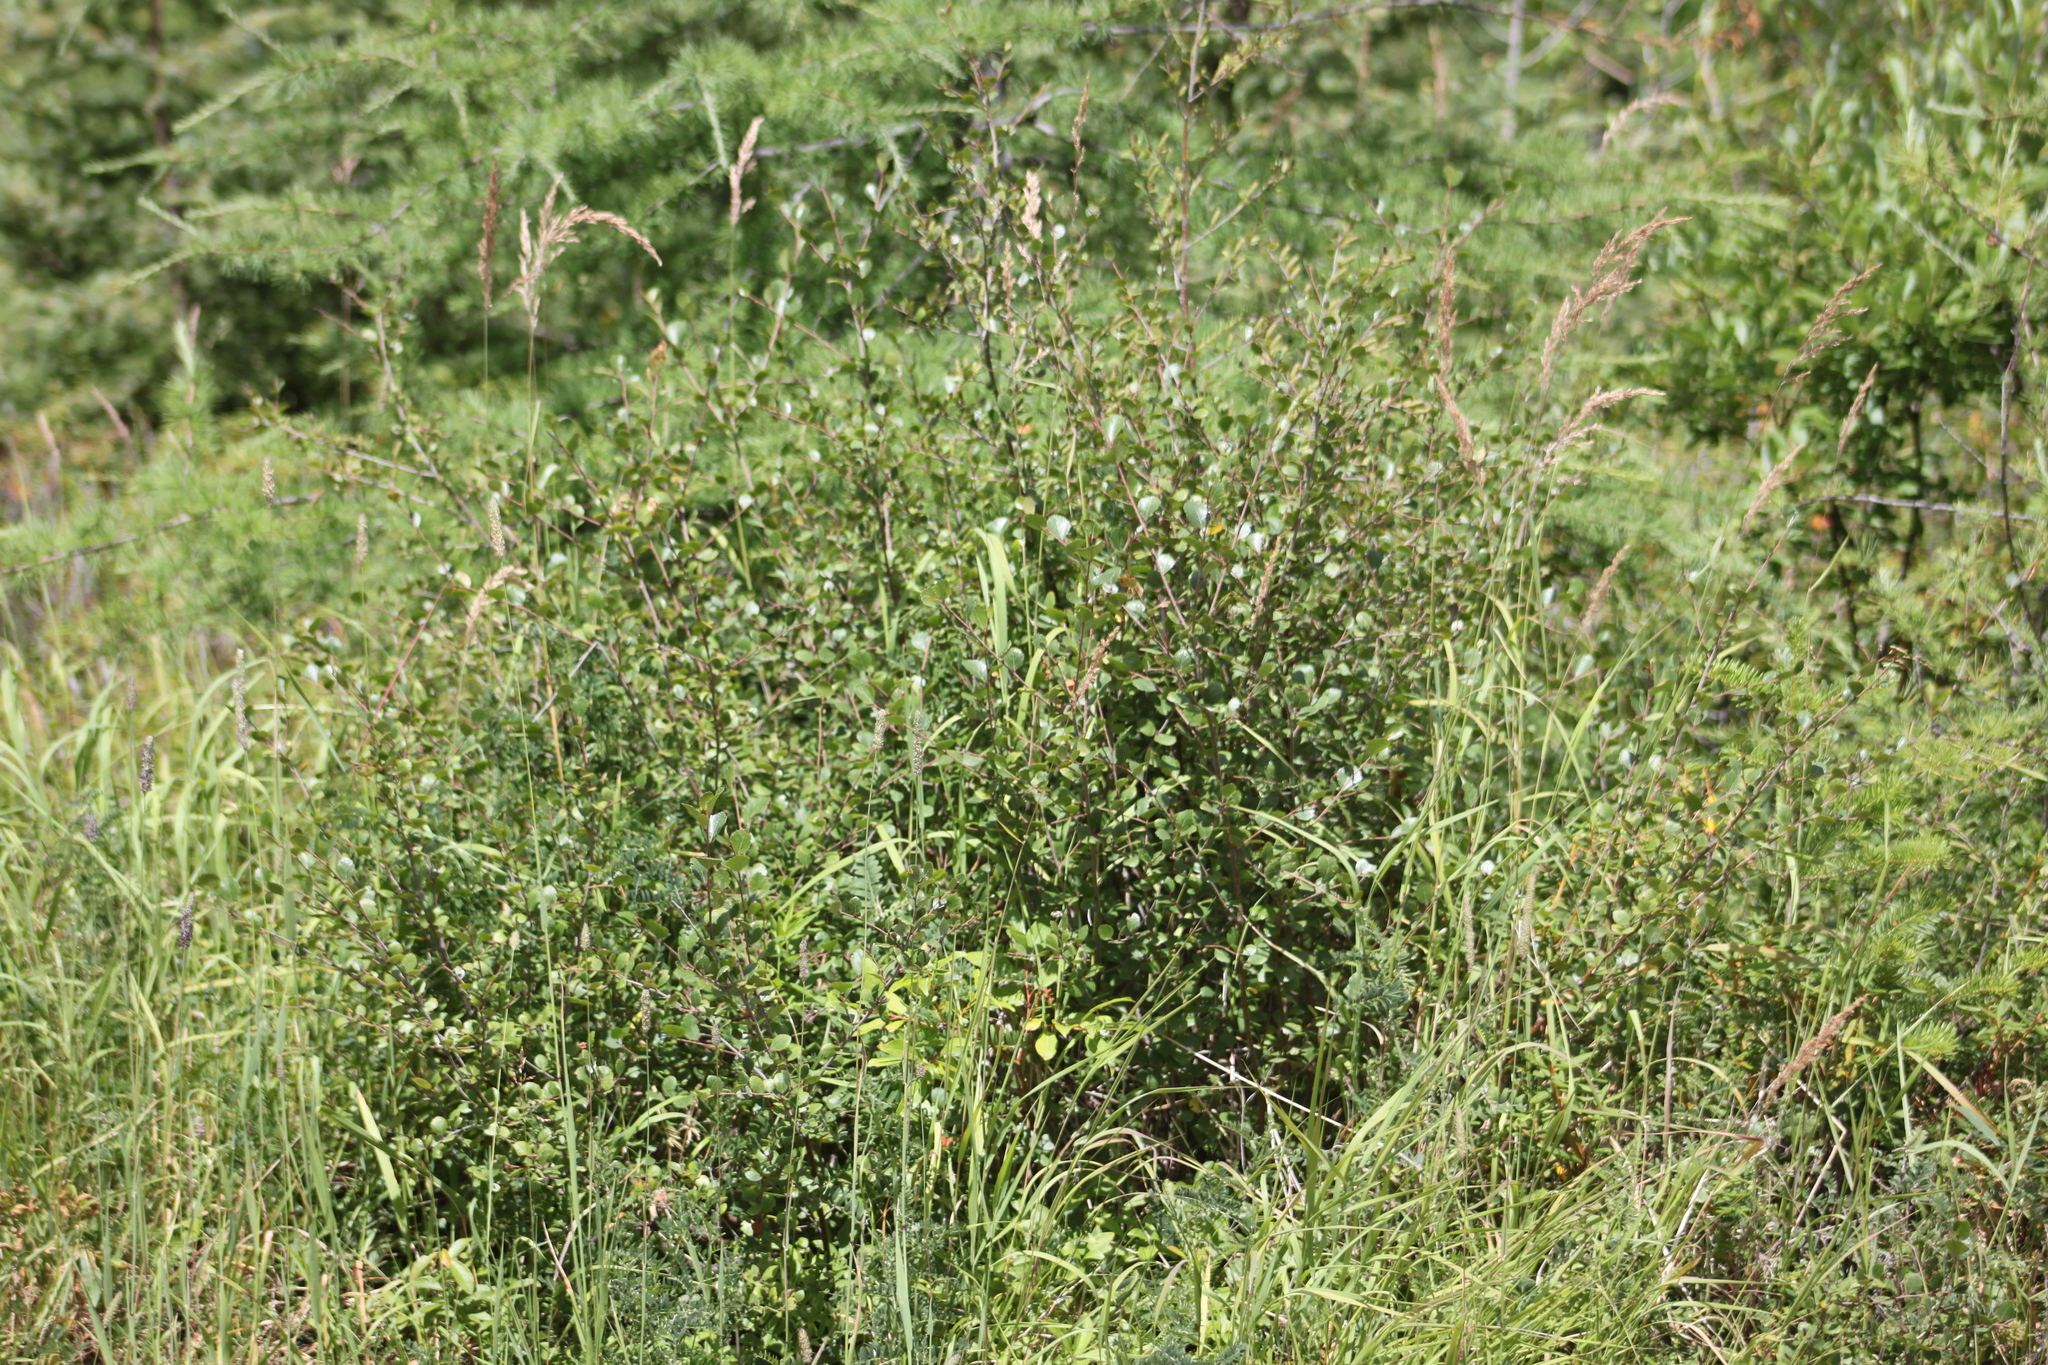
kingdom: Plantae
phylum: Tracheophyta
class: Magnoliopsida
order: Fagales
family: Betulaceae
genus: Betula
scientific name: Betula glandulosa
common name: Dwarf birch
